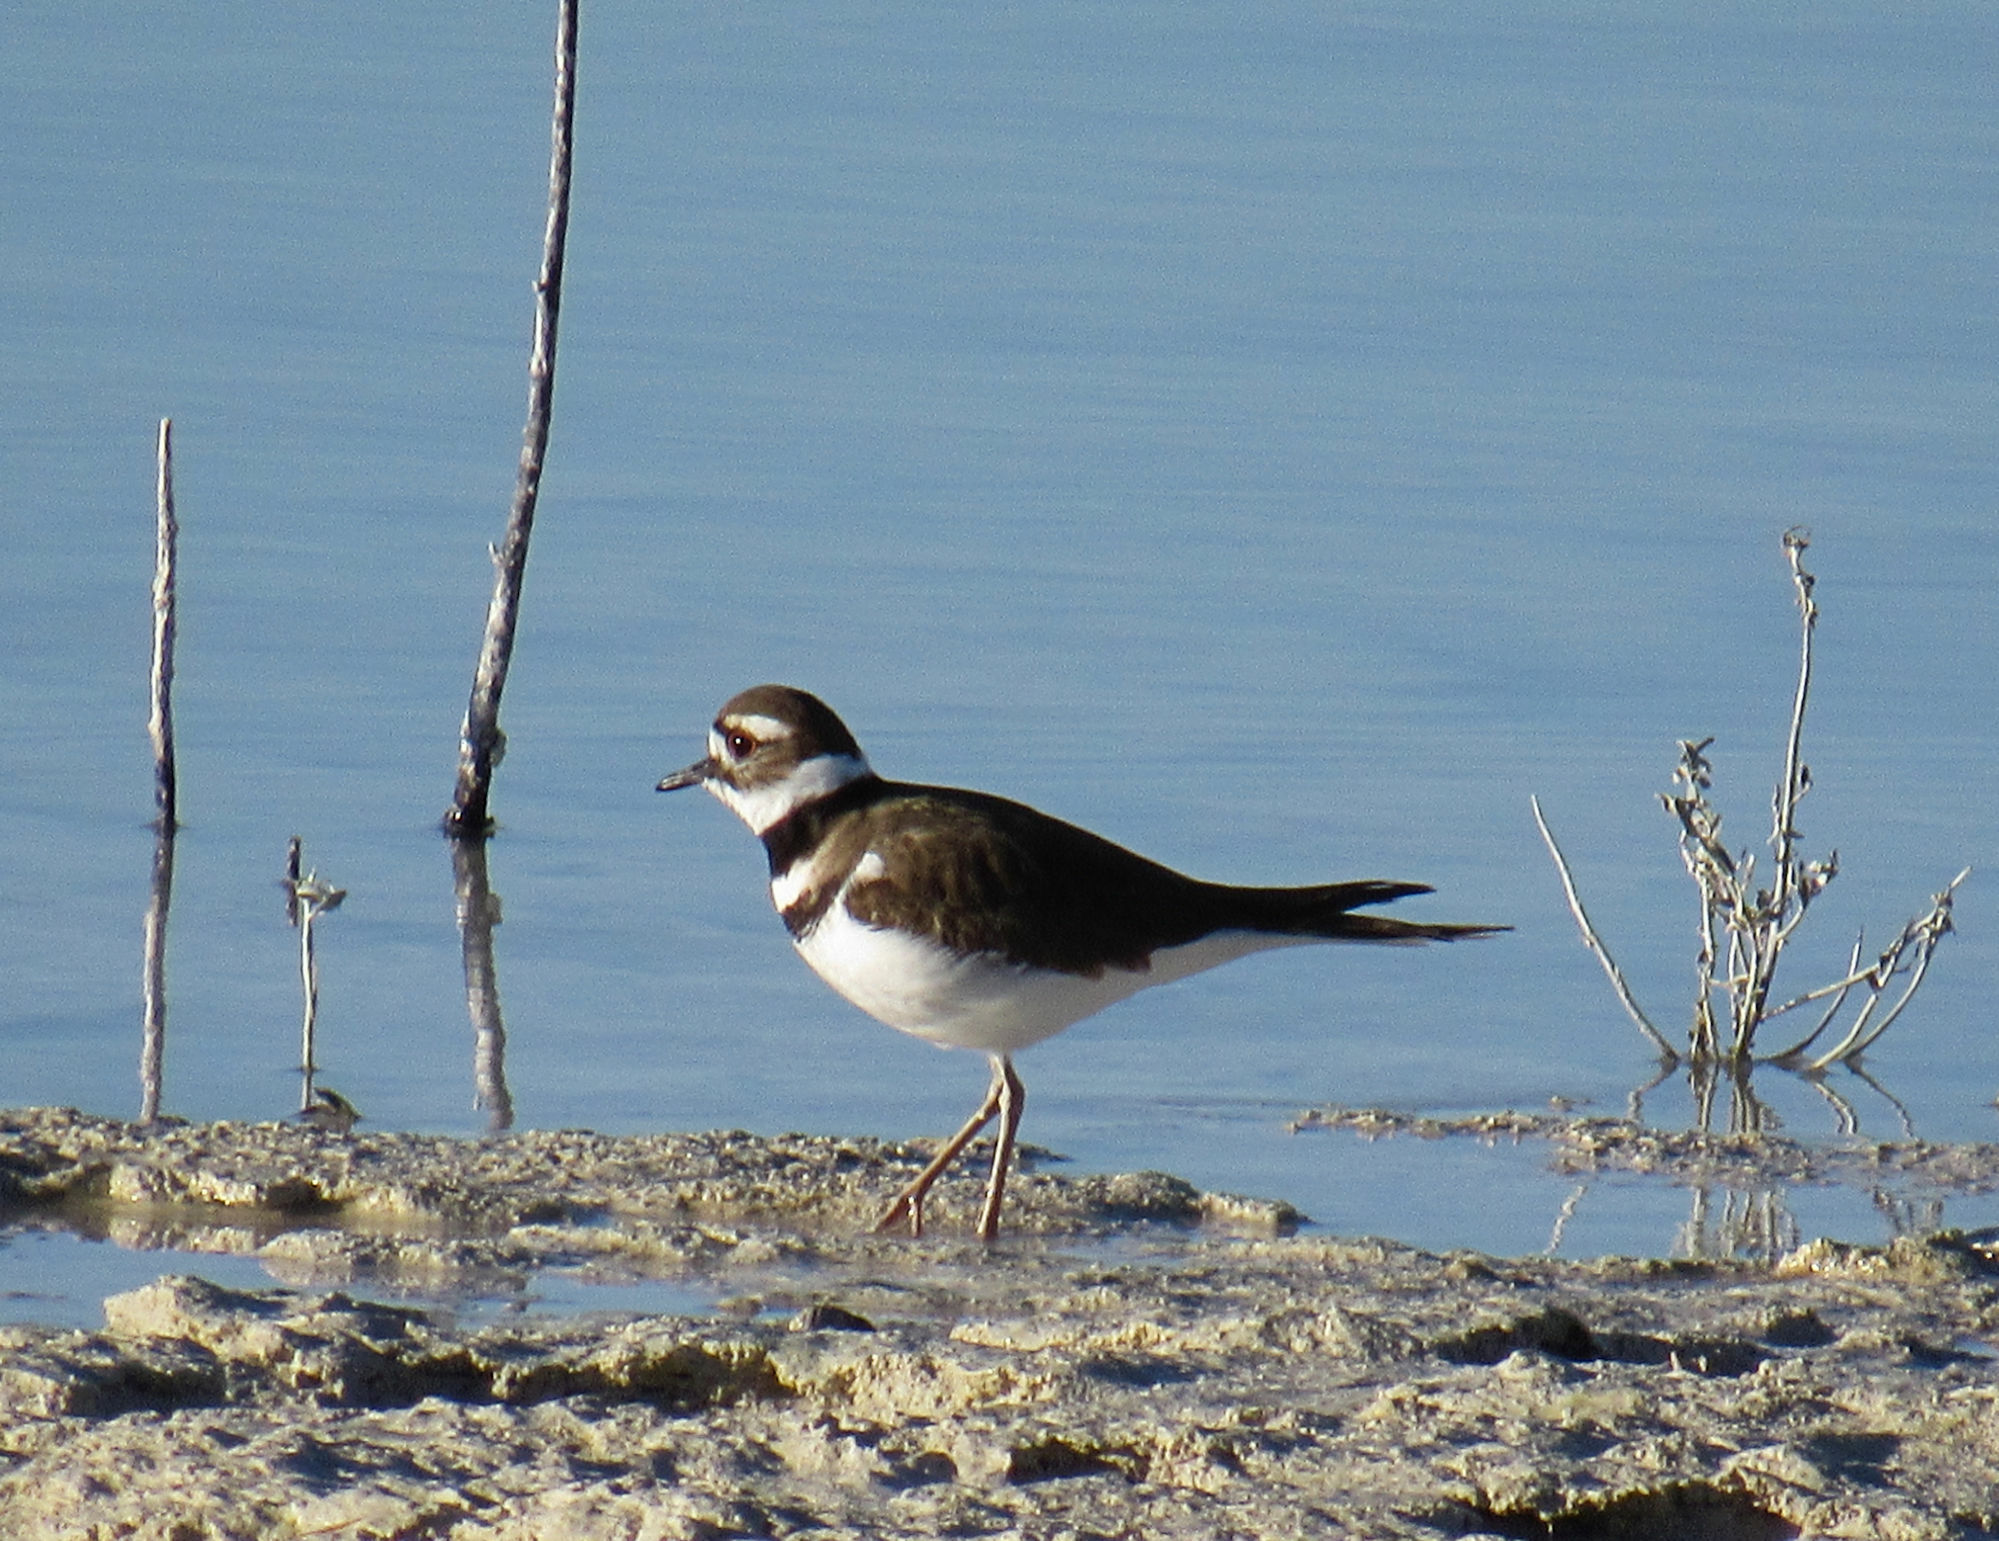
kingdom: Animalia
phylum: Chordata
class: Aves
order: Charadriiformes
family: Charadriidae
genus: Charadrius
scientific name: Charadrius vociferus
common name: Killdeer
